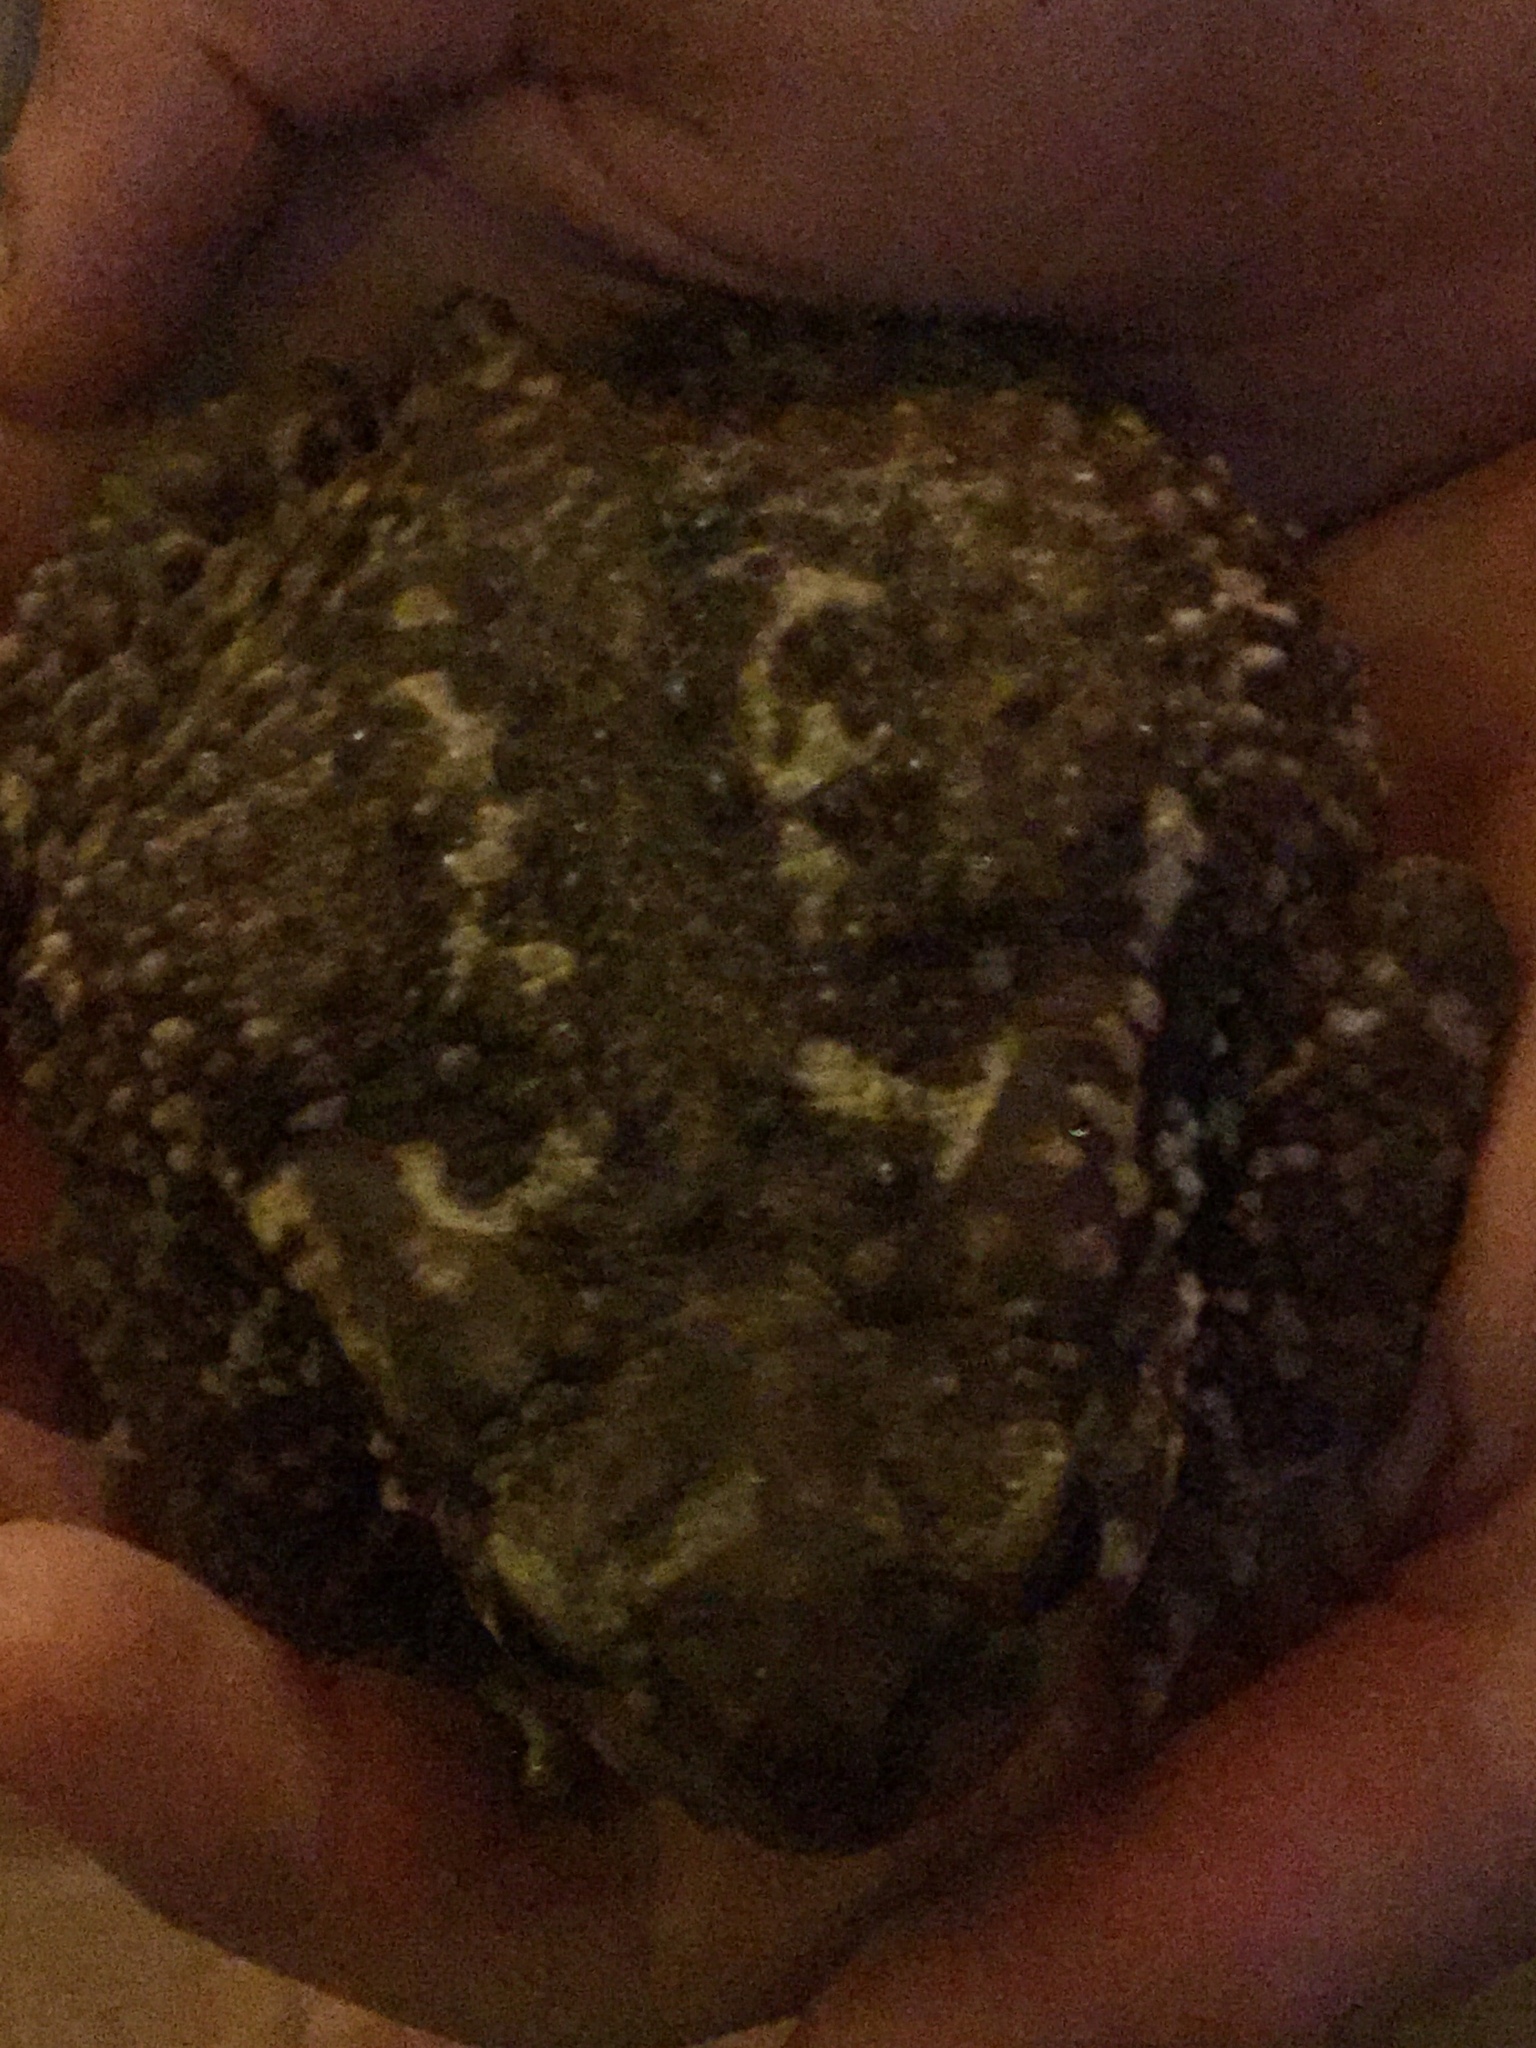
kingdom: Animalia
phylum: Chordata
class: Amphibia
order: Anura
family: Bufonidae
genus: Bufo
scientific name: Bufo spinosus
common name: Western common toad
